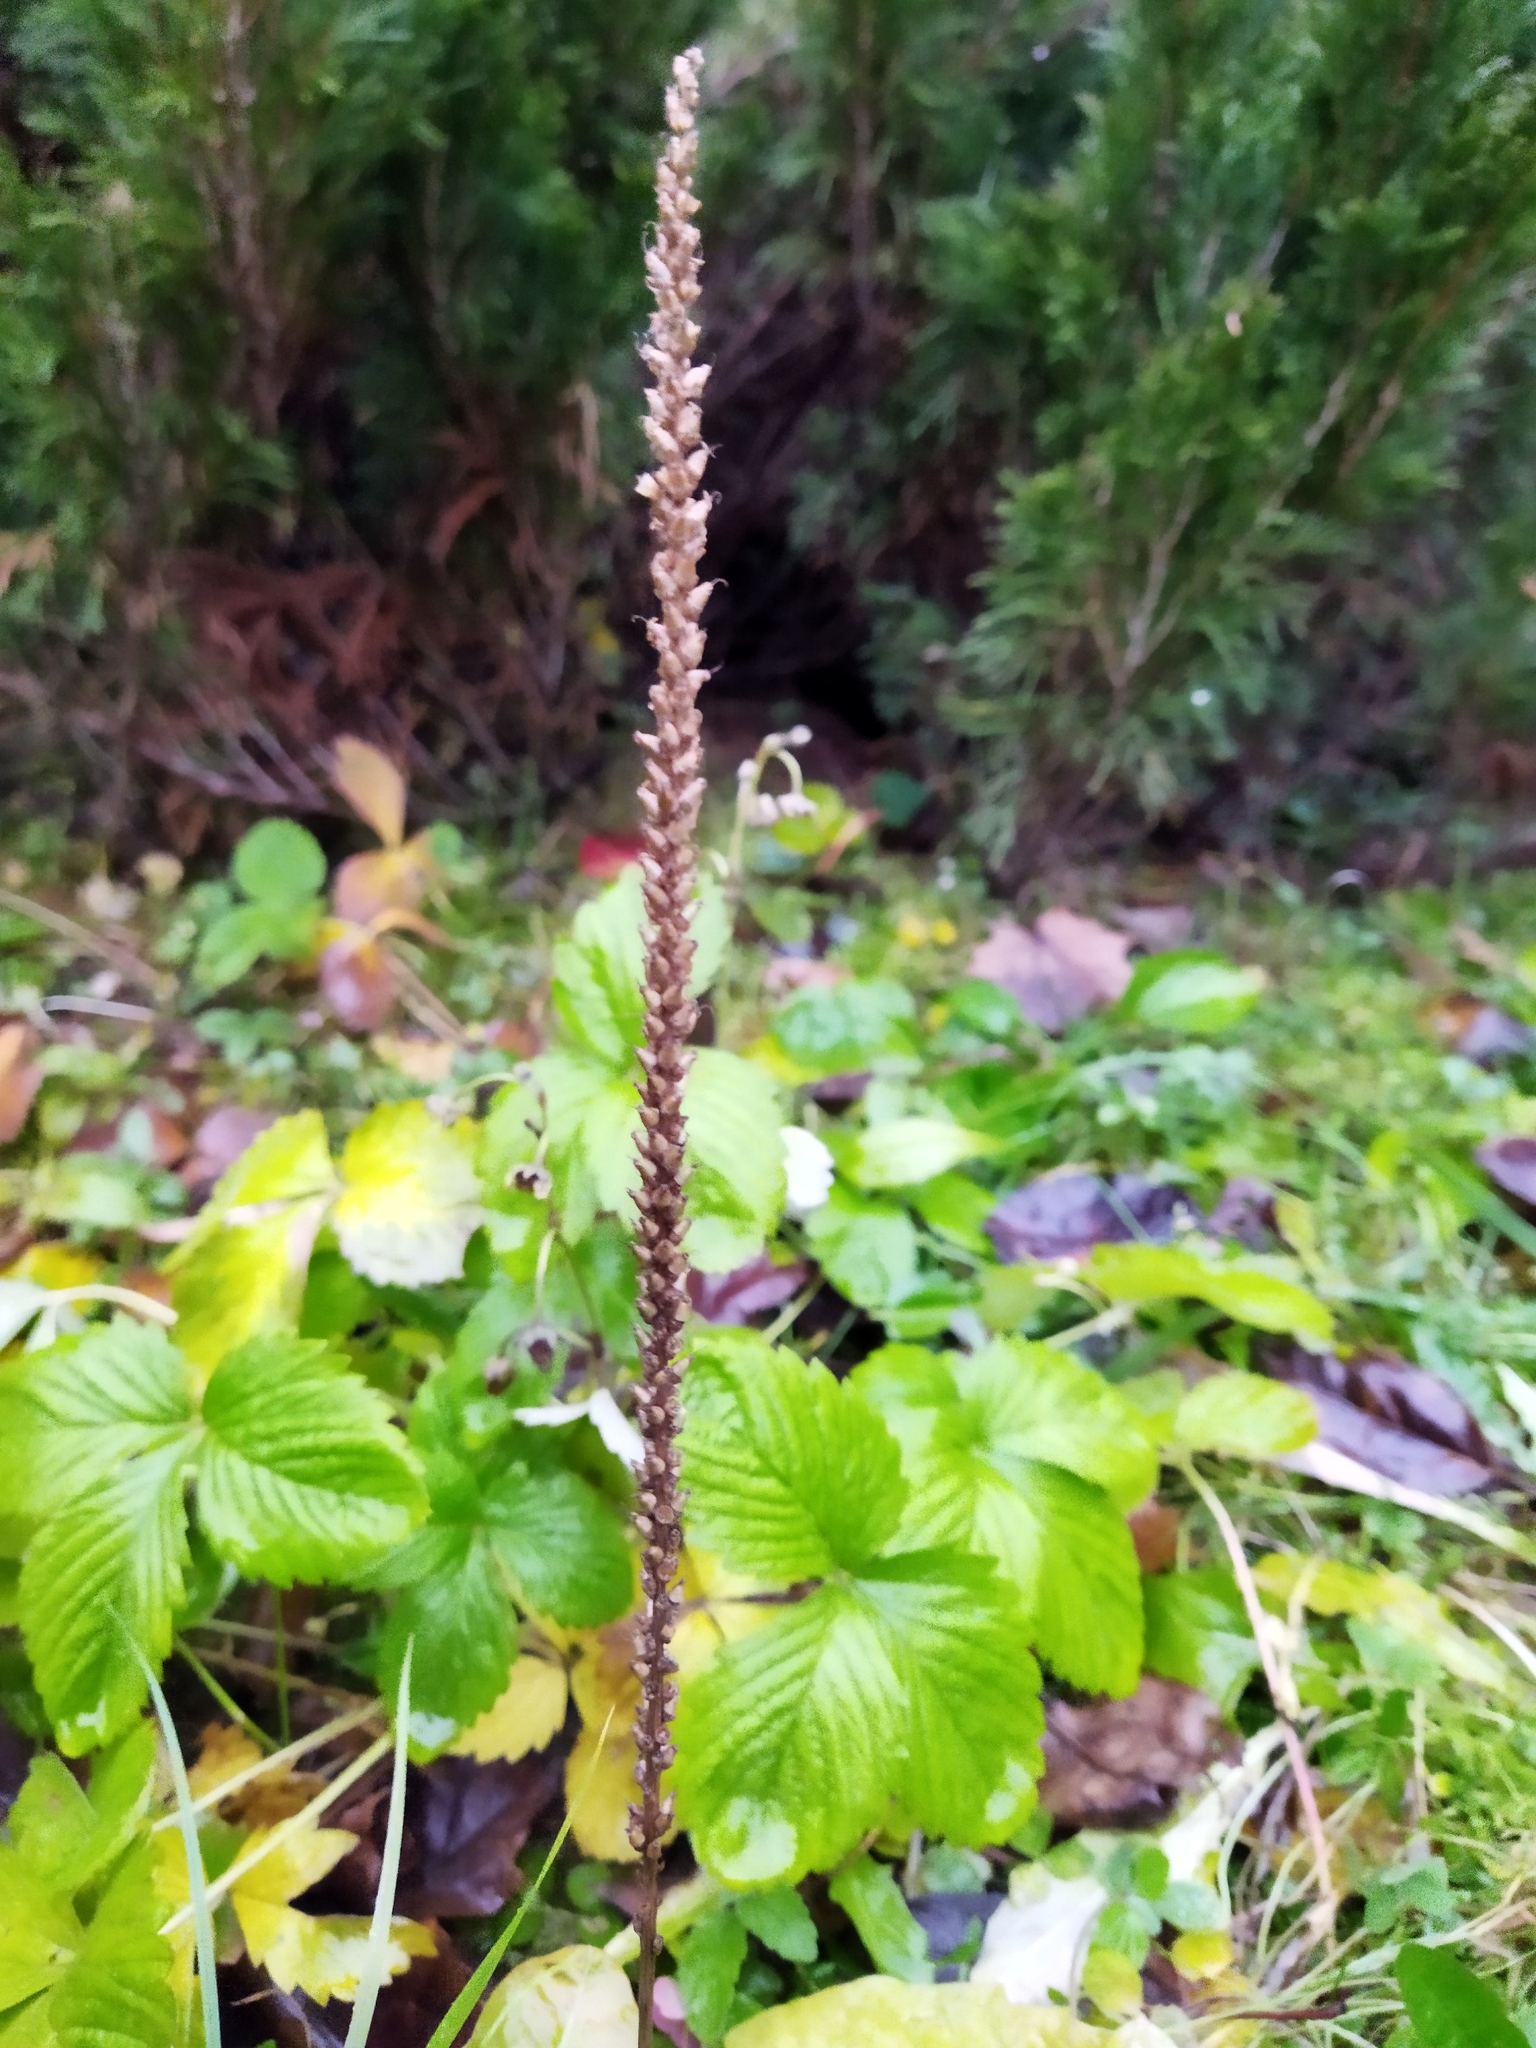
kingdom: Plantae
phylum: Tracheophyta
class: Magnoliopsida
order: Lamiales
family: Plantaginaceae
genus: Plantago
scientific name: Plantago major
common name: Common plantain
